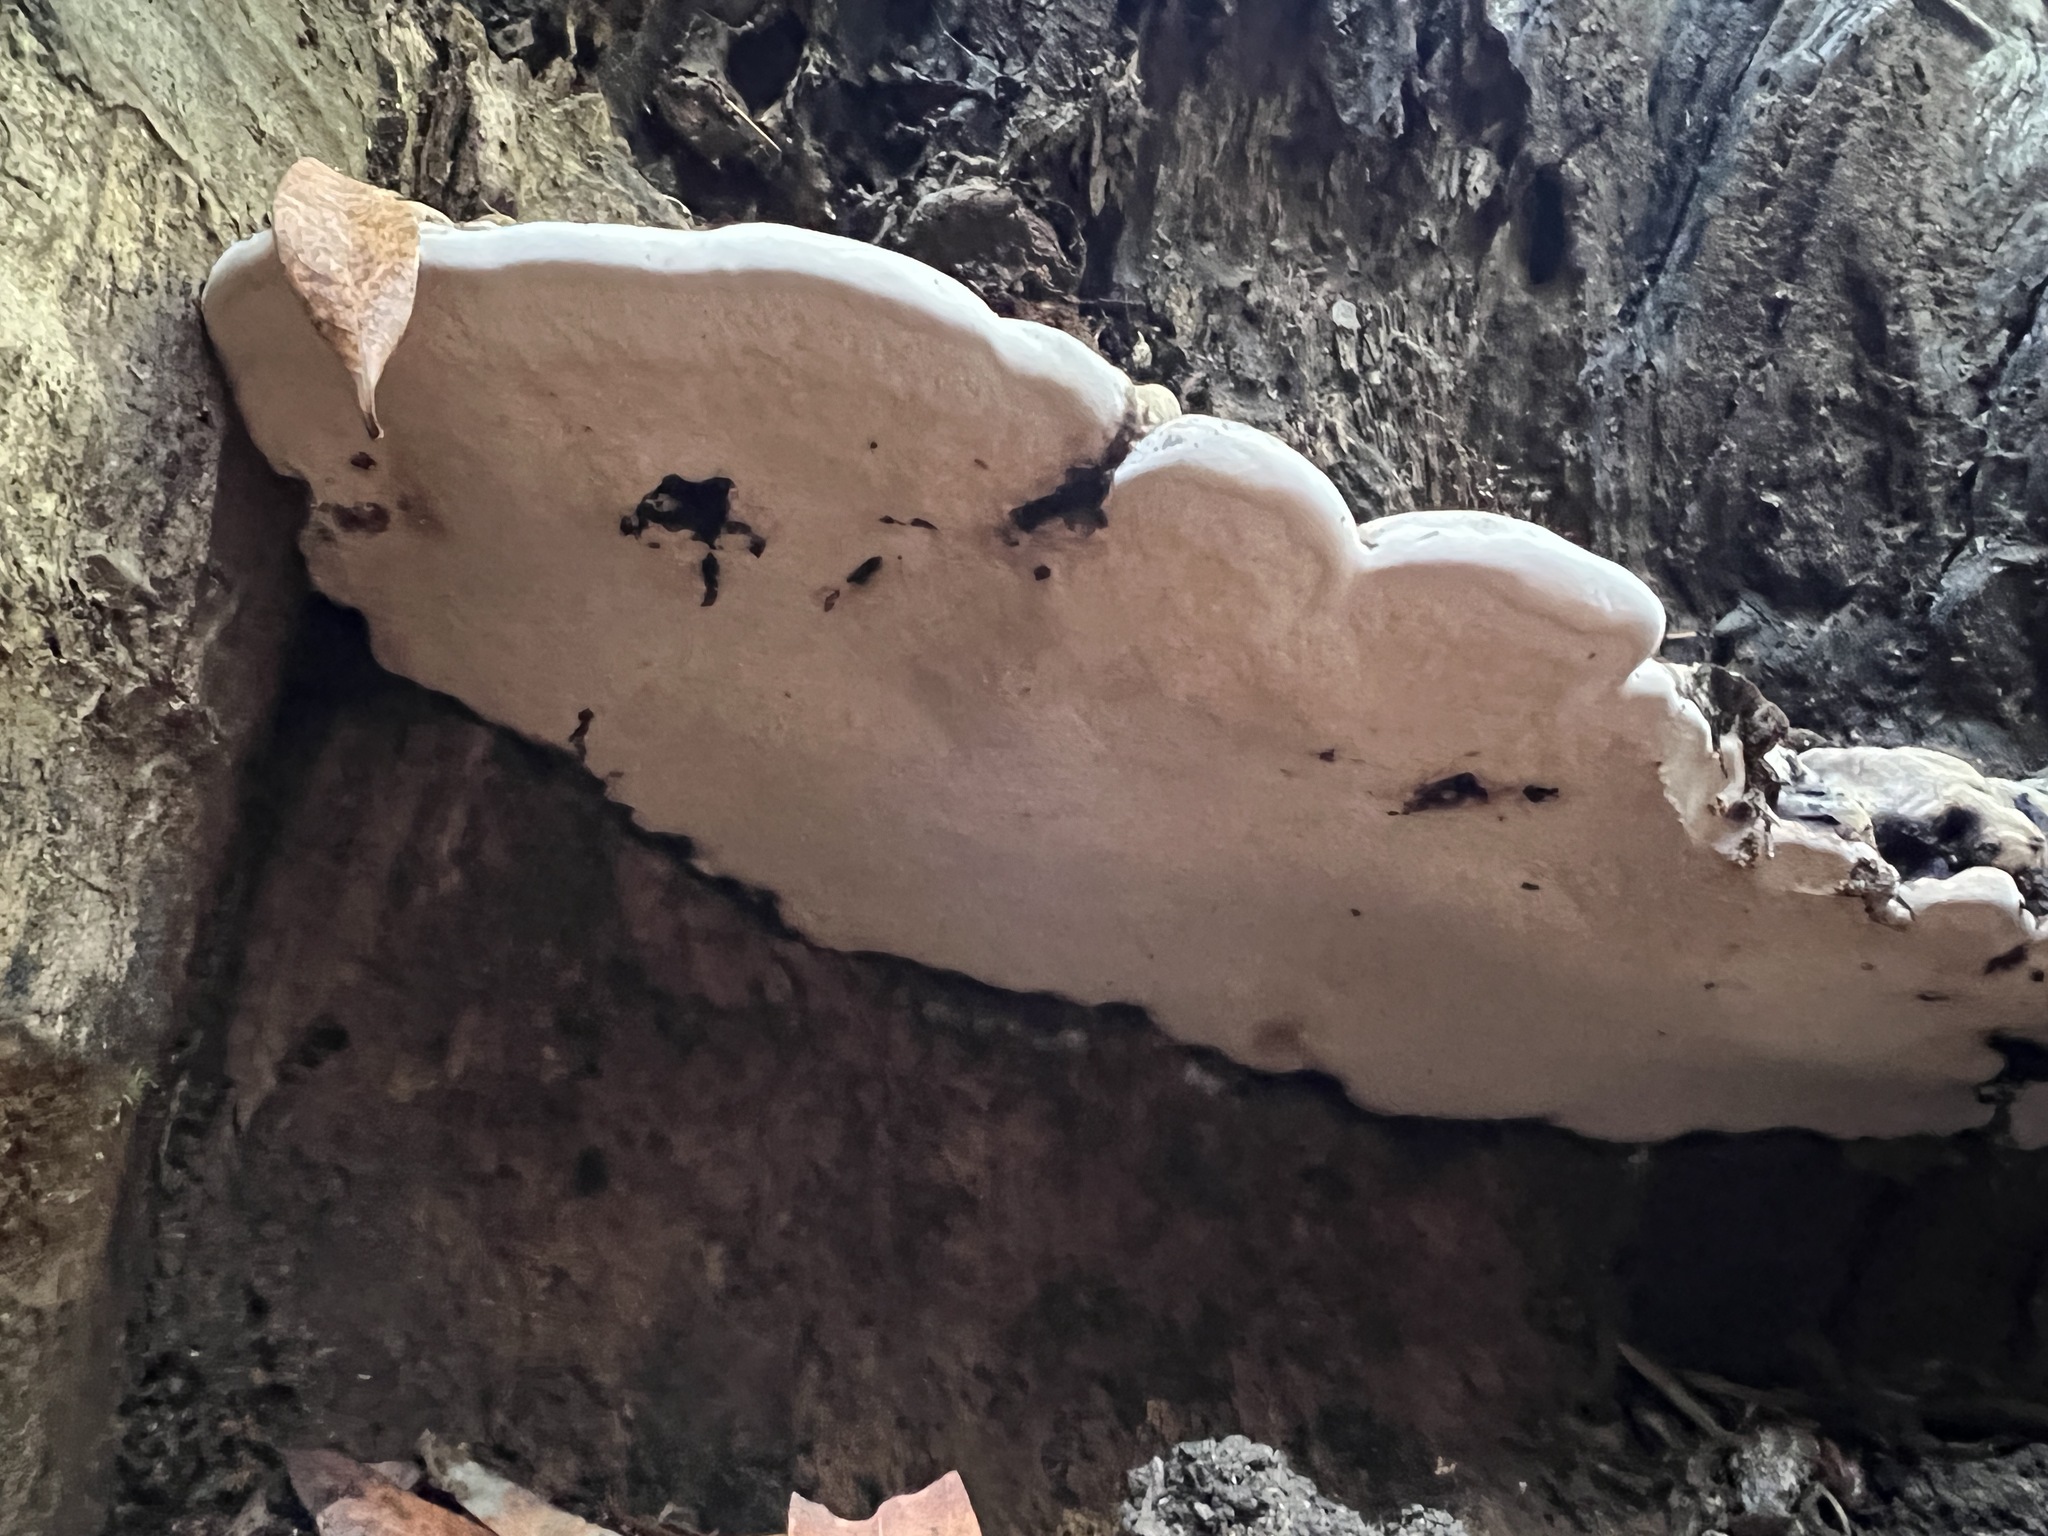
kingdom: Fungi
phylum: Basidiomycota
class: Agaricomycetes
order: Polyporales
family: Polyporaceae
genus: Ganoderma
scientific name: Ganoderma brownii
